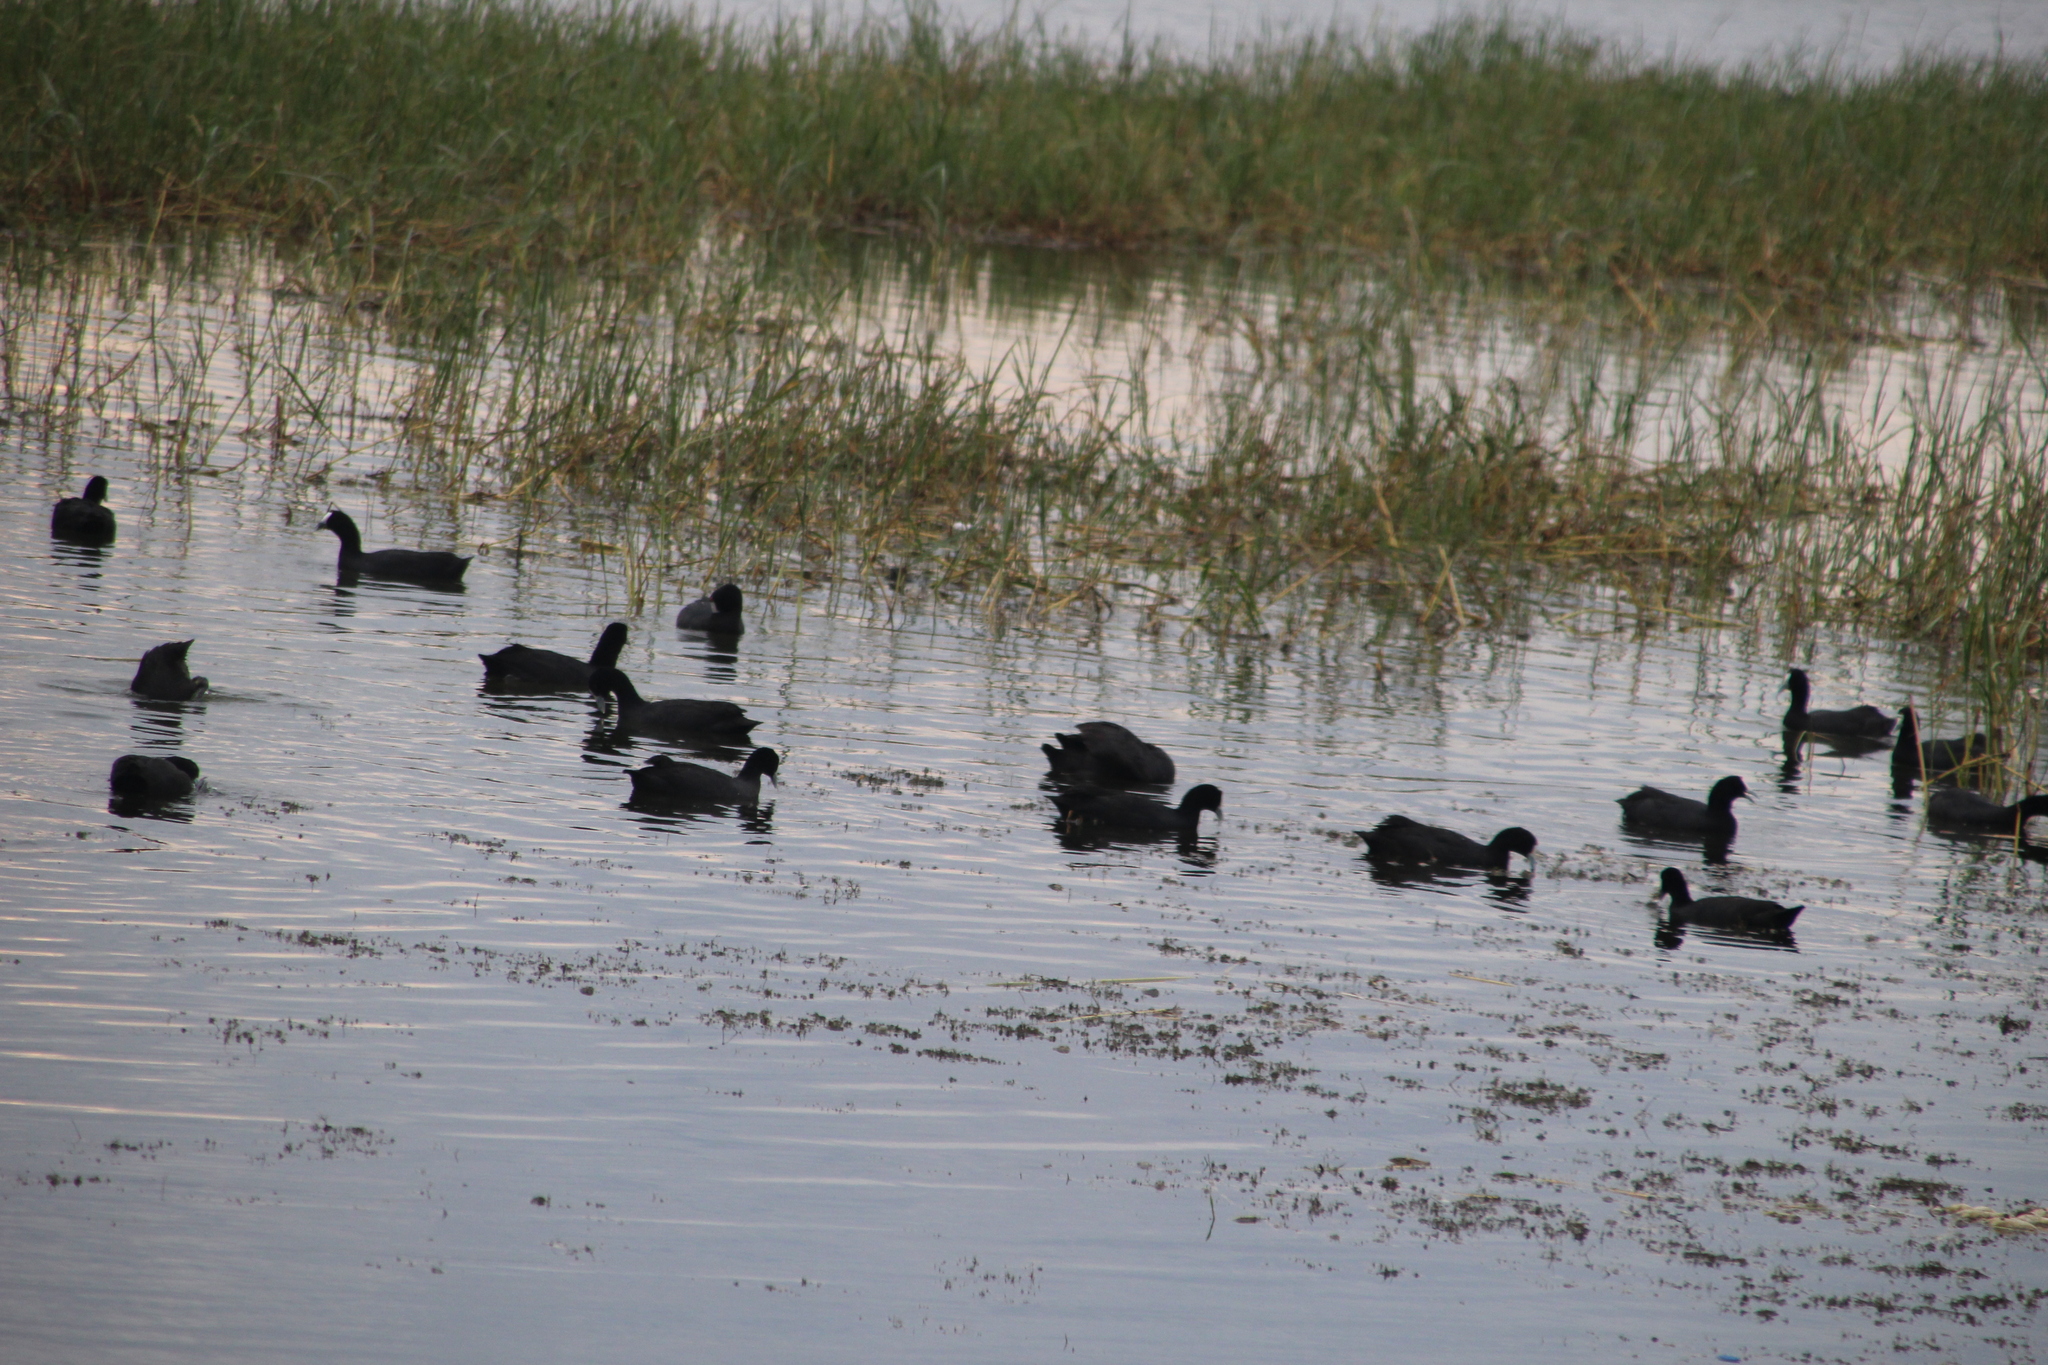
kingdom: Animalia
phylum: Chordata
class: Aves
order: Gruiformes
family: Rallidae
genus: Fulica
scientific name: Fulica cristata
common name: Red-knobbed coot
